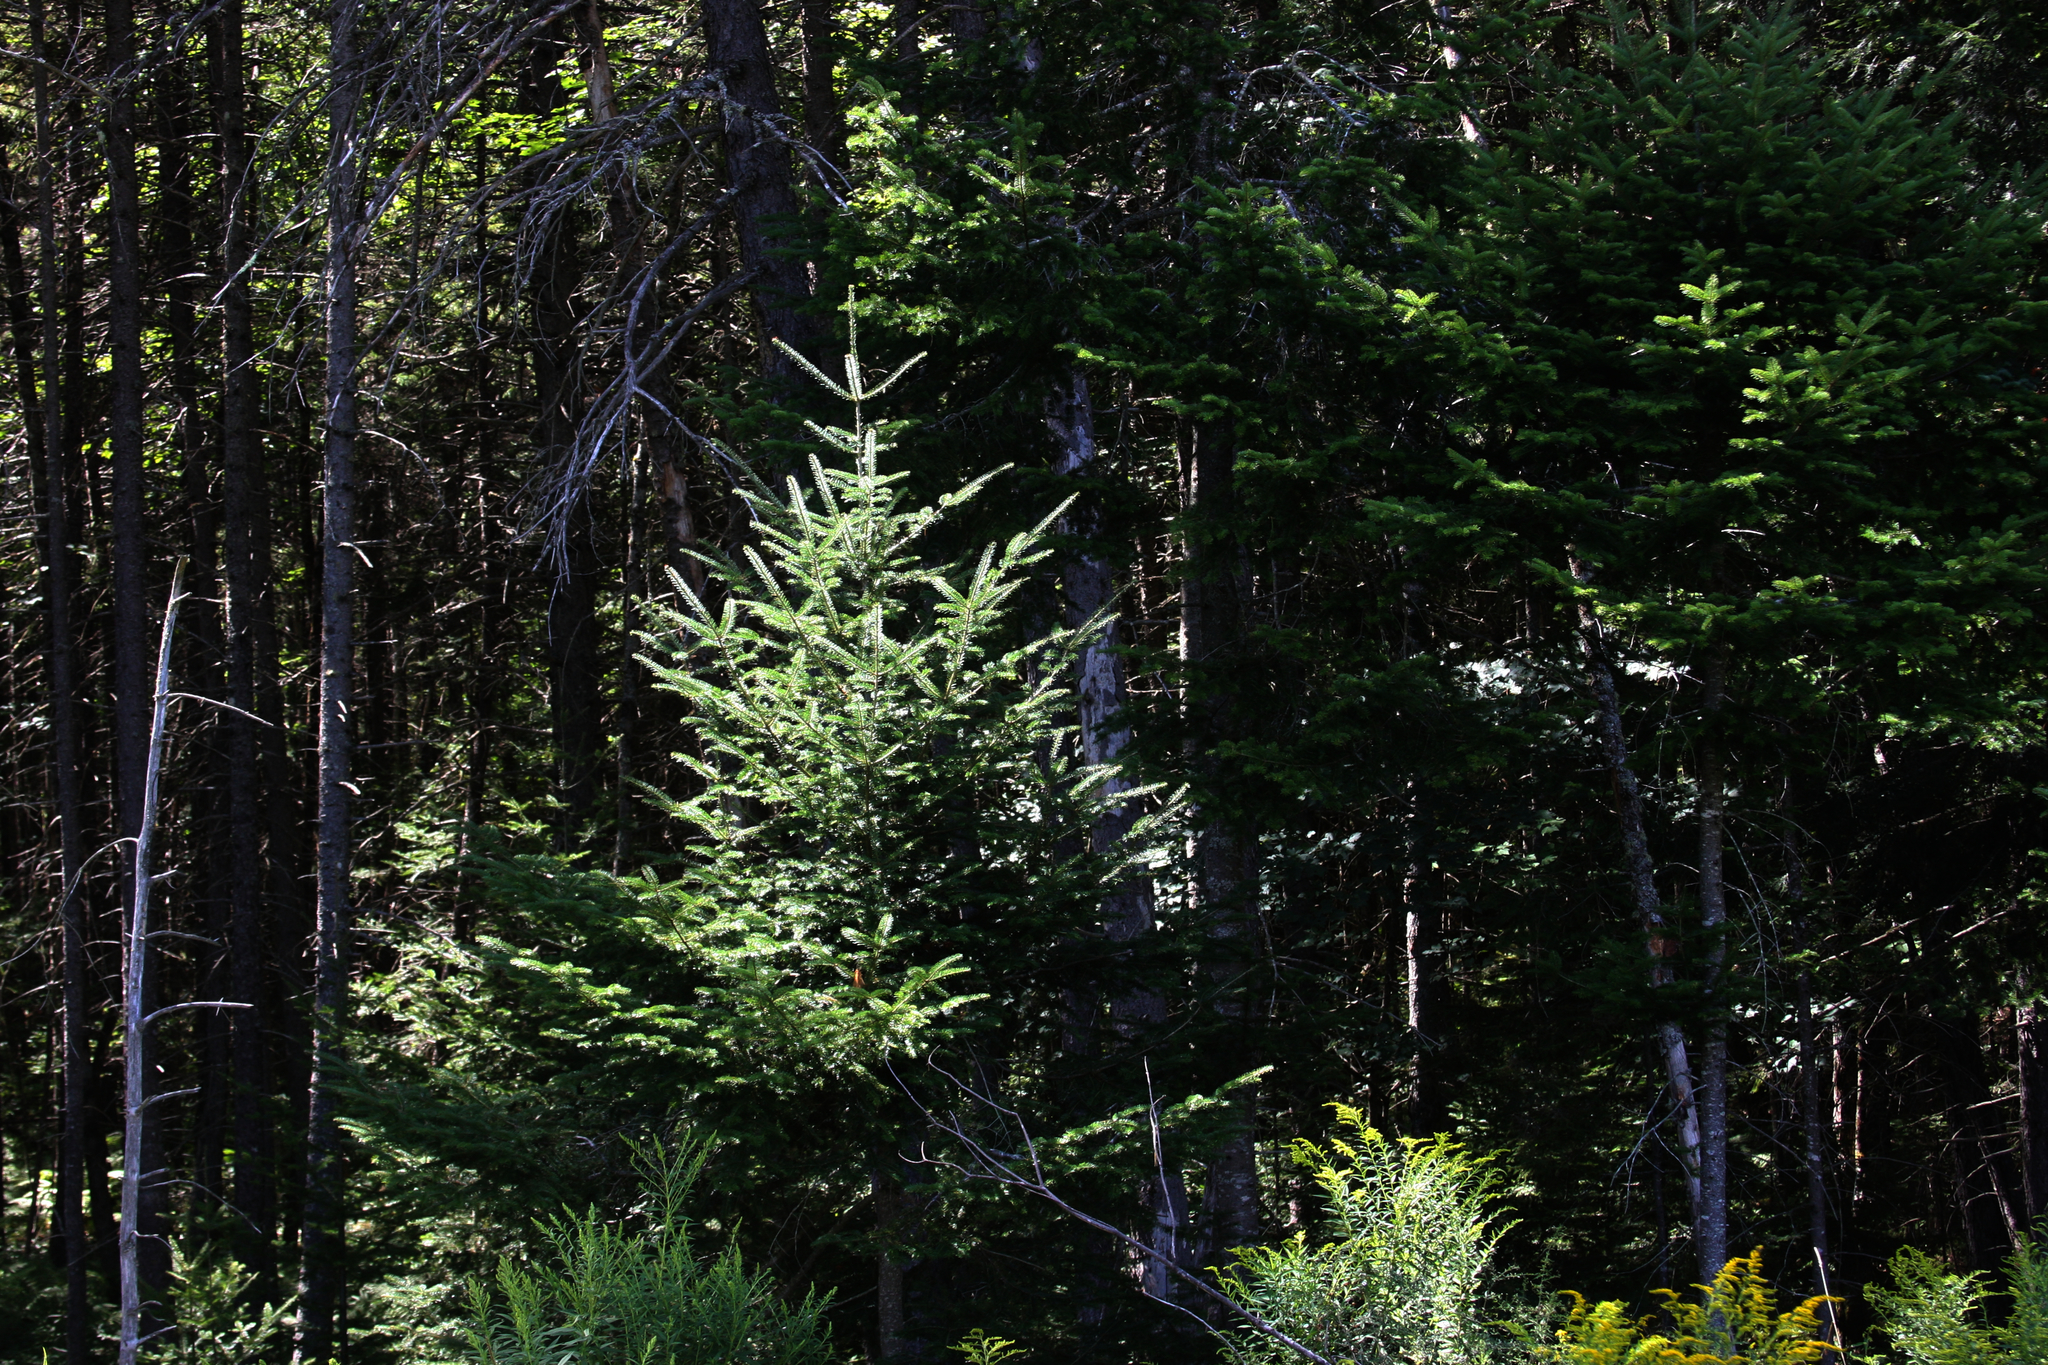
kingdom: Plantae
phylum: Tracheophyta
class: Pinopsida
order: Pinales
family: Pinaceae
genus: Abies
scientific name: Abies balsamea
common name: Balsam fir
